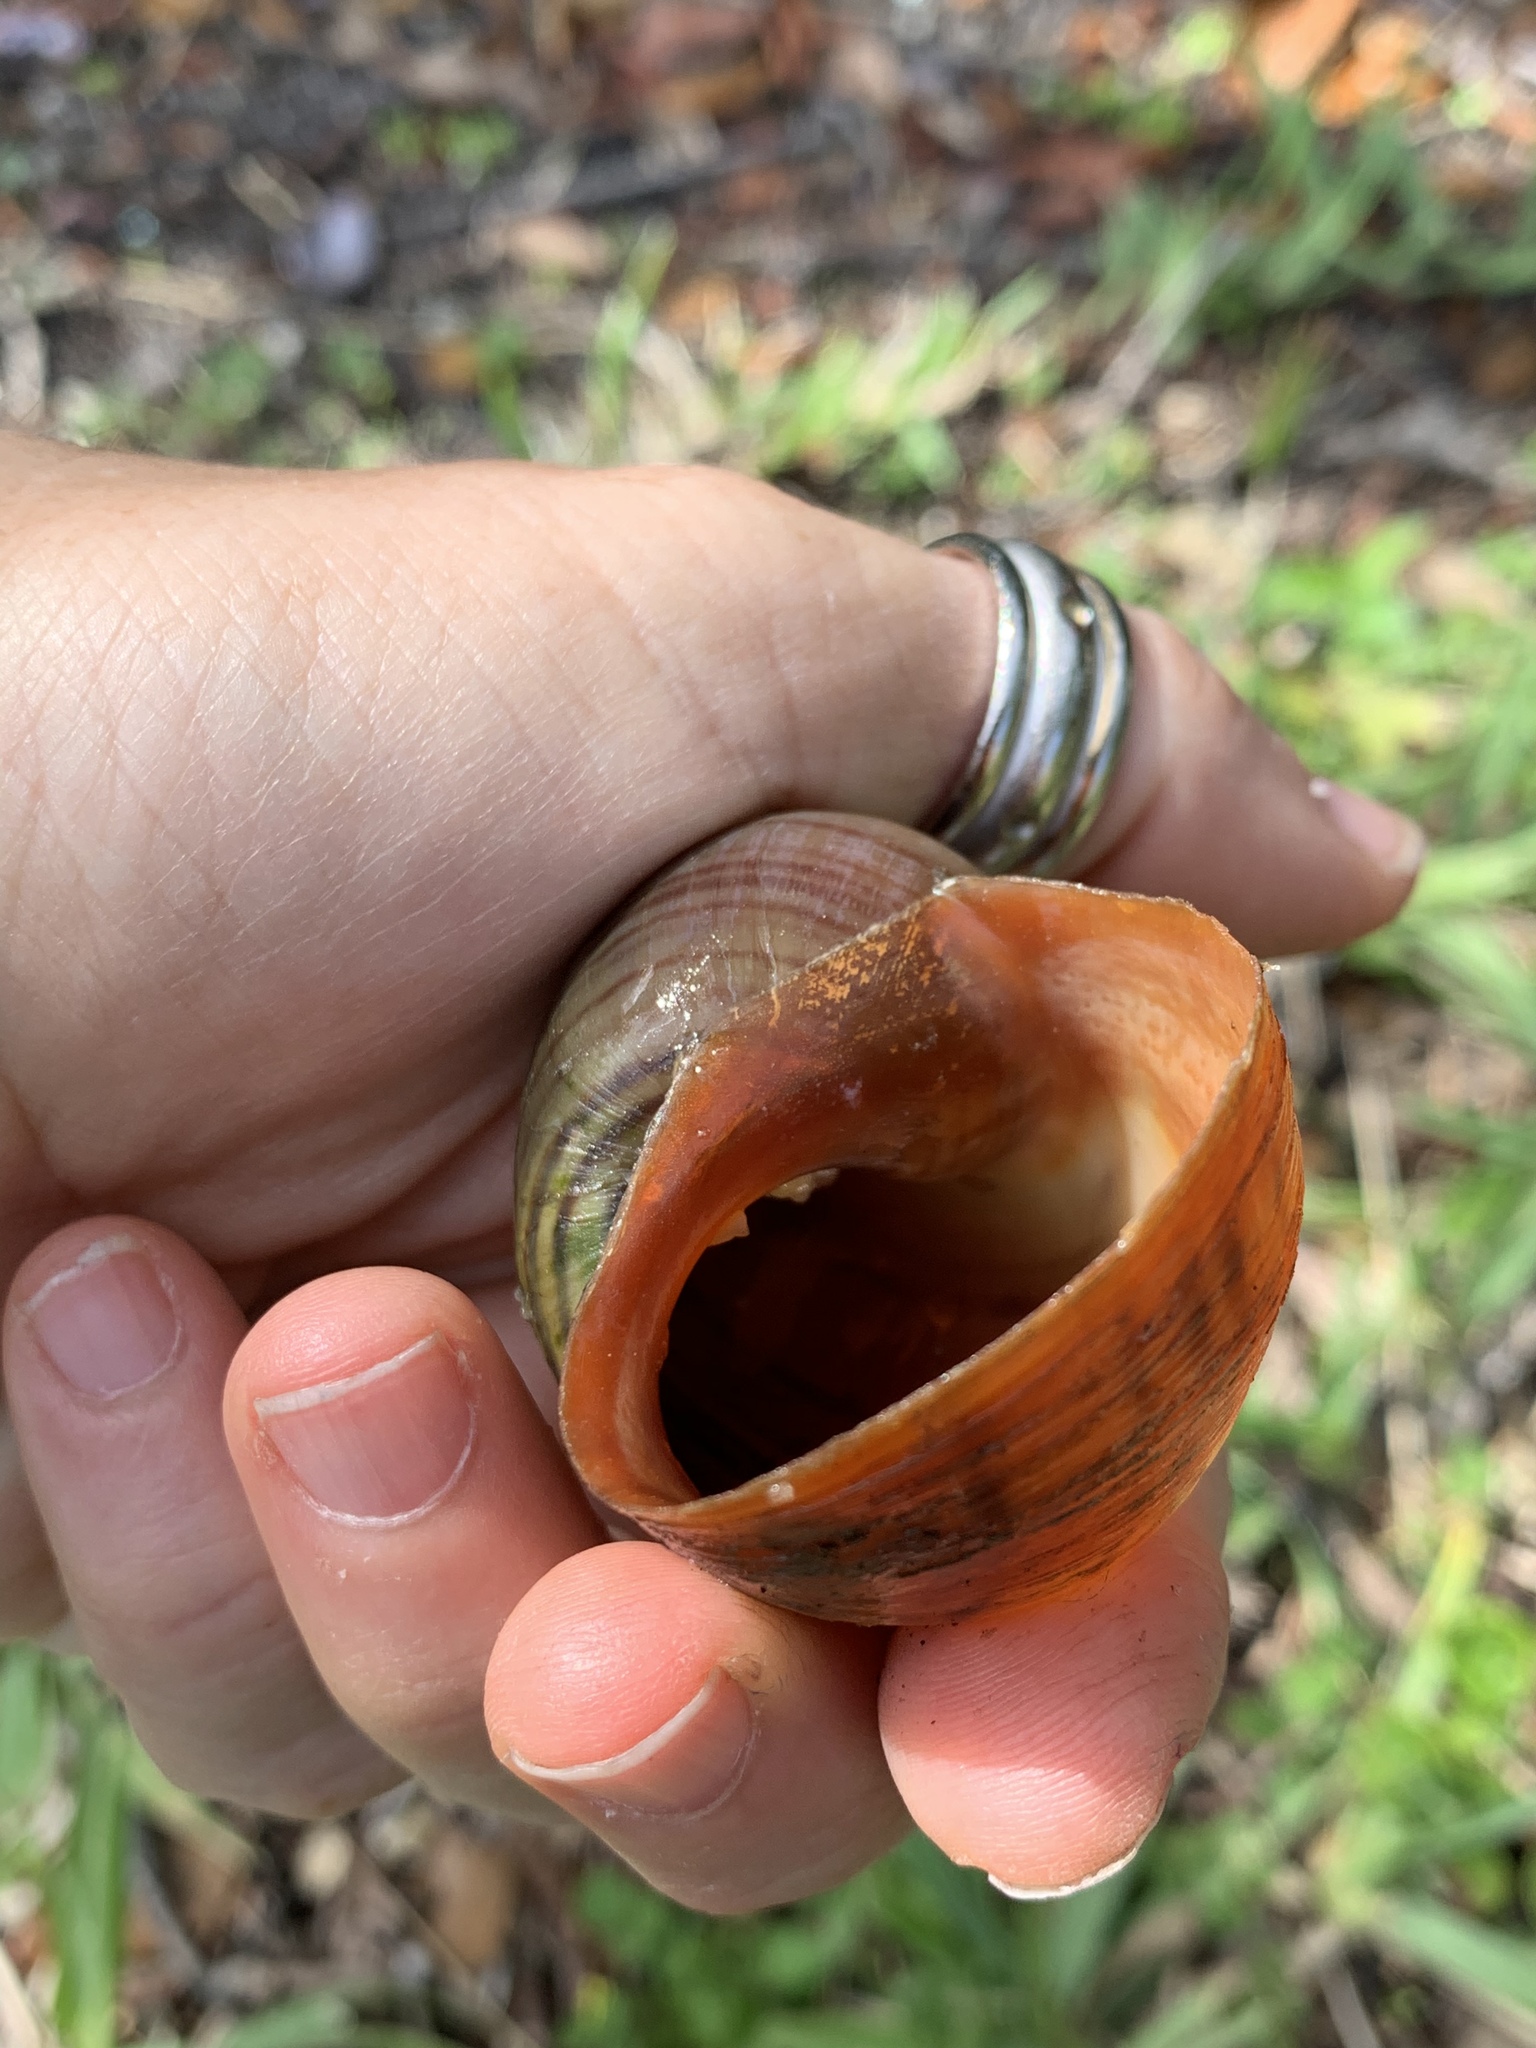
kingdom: Animalia
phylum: Mollusca
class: Gastropoda
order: Architaenioglossa
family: Ampullariidae
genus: Pomacea
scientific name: Pomacea maculata
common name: Giant applesnail
